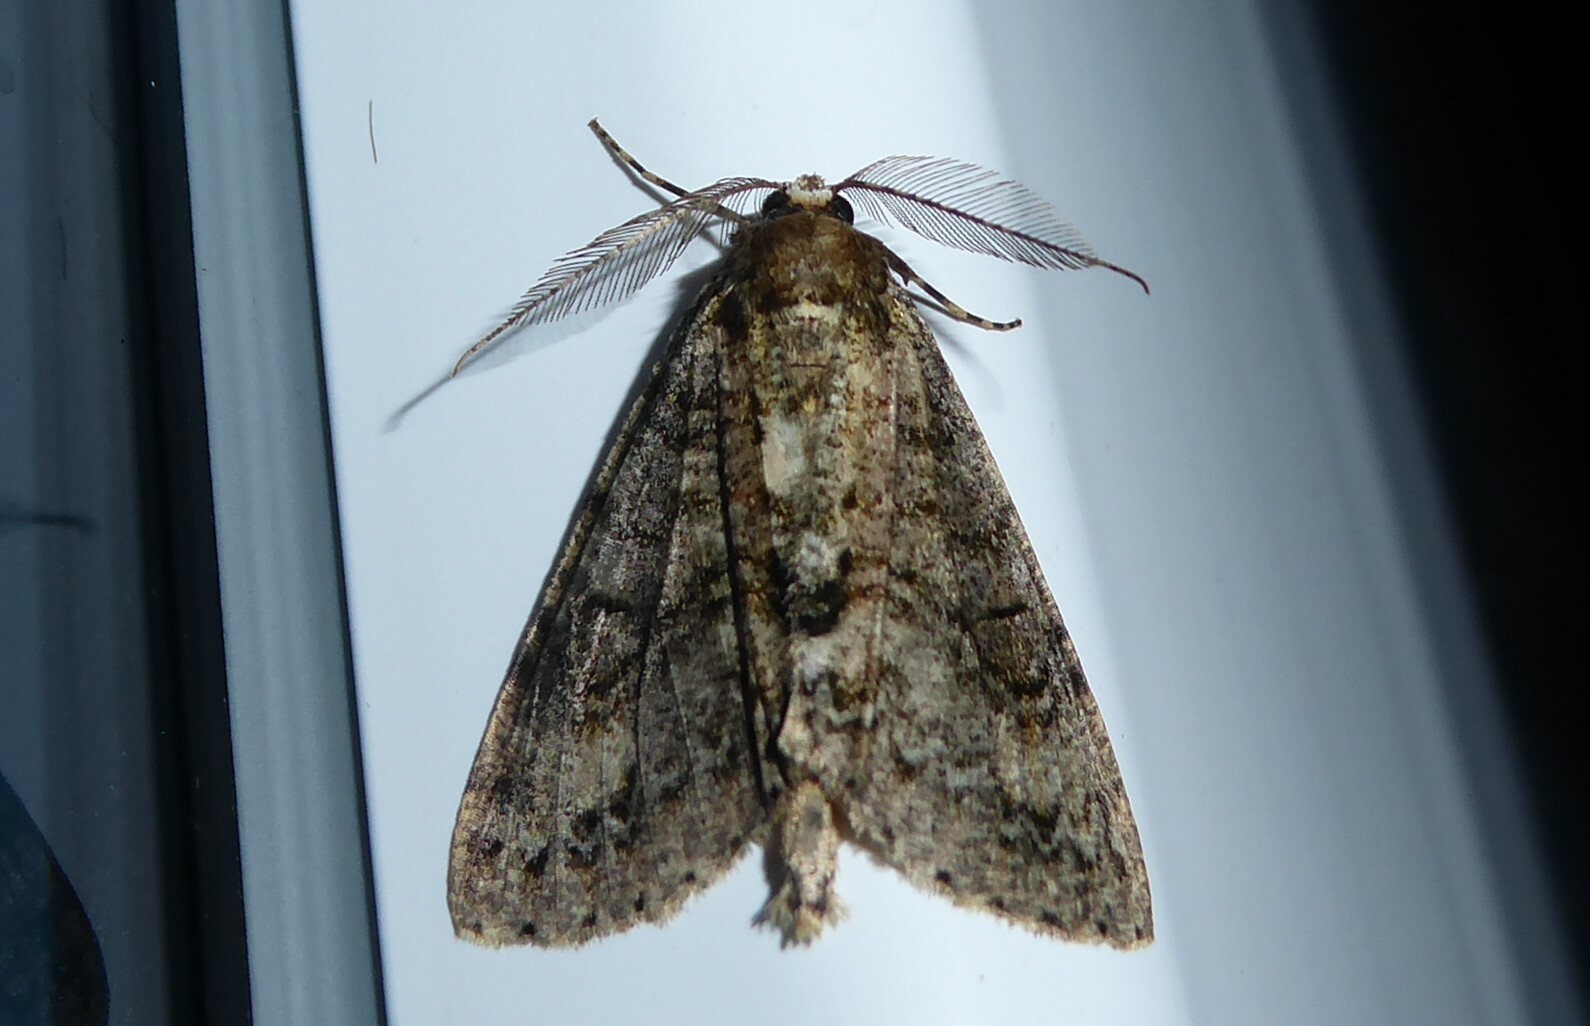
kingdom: Animalia
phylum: Arthropoda
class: Insecta
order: Lepidoptera
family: Geometridae
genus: Pseudocoremia
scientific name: Pseudocoremia suavis
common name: Common forest looper
